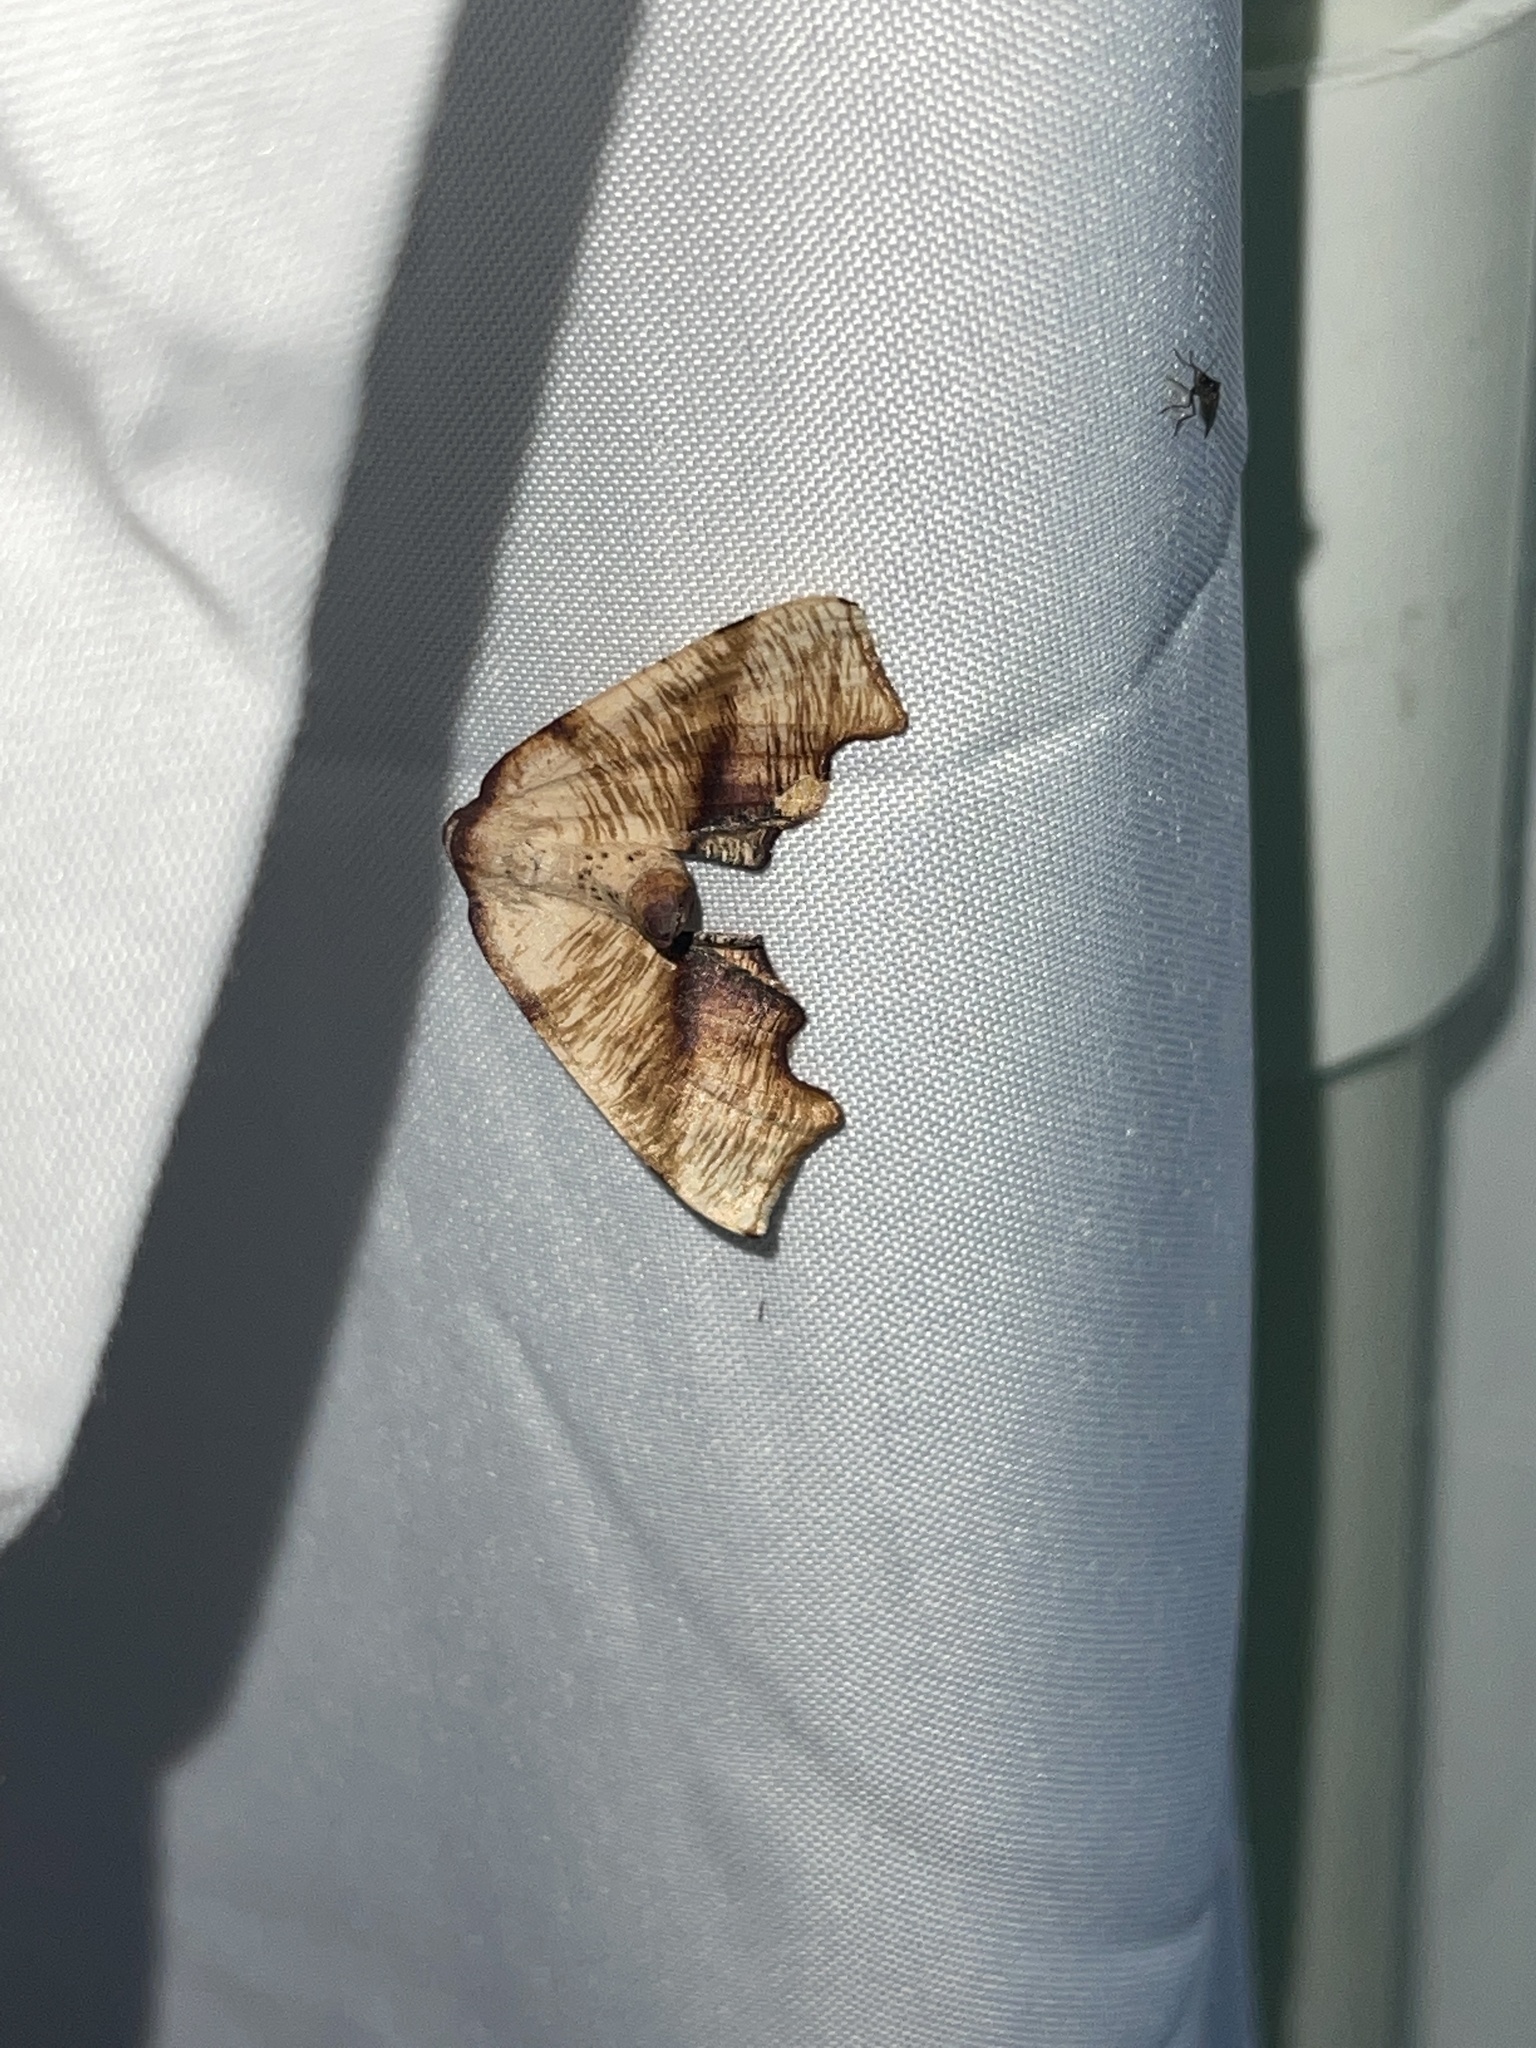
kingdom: Animalia
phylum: Arthropoda
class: Insecta
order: Lepidoptera
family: Geometridae
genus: Plagodis
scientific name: Plagodis fervidaria
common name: Fervid plagodis
